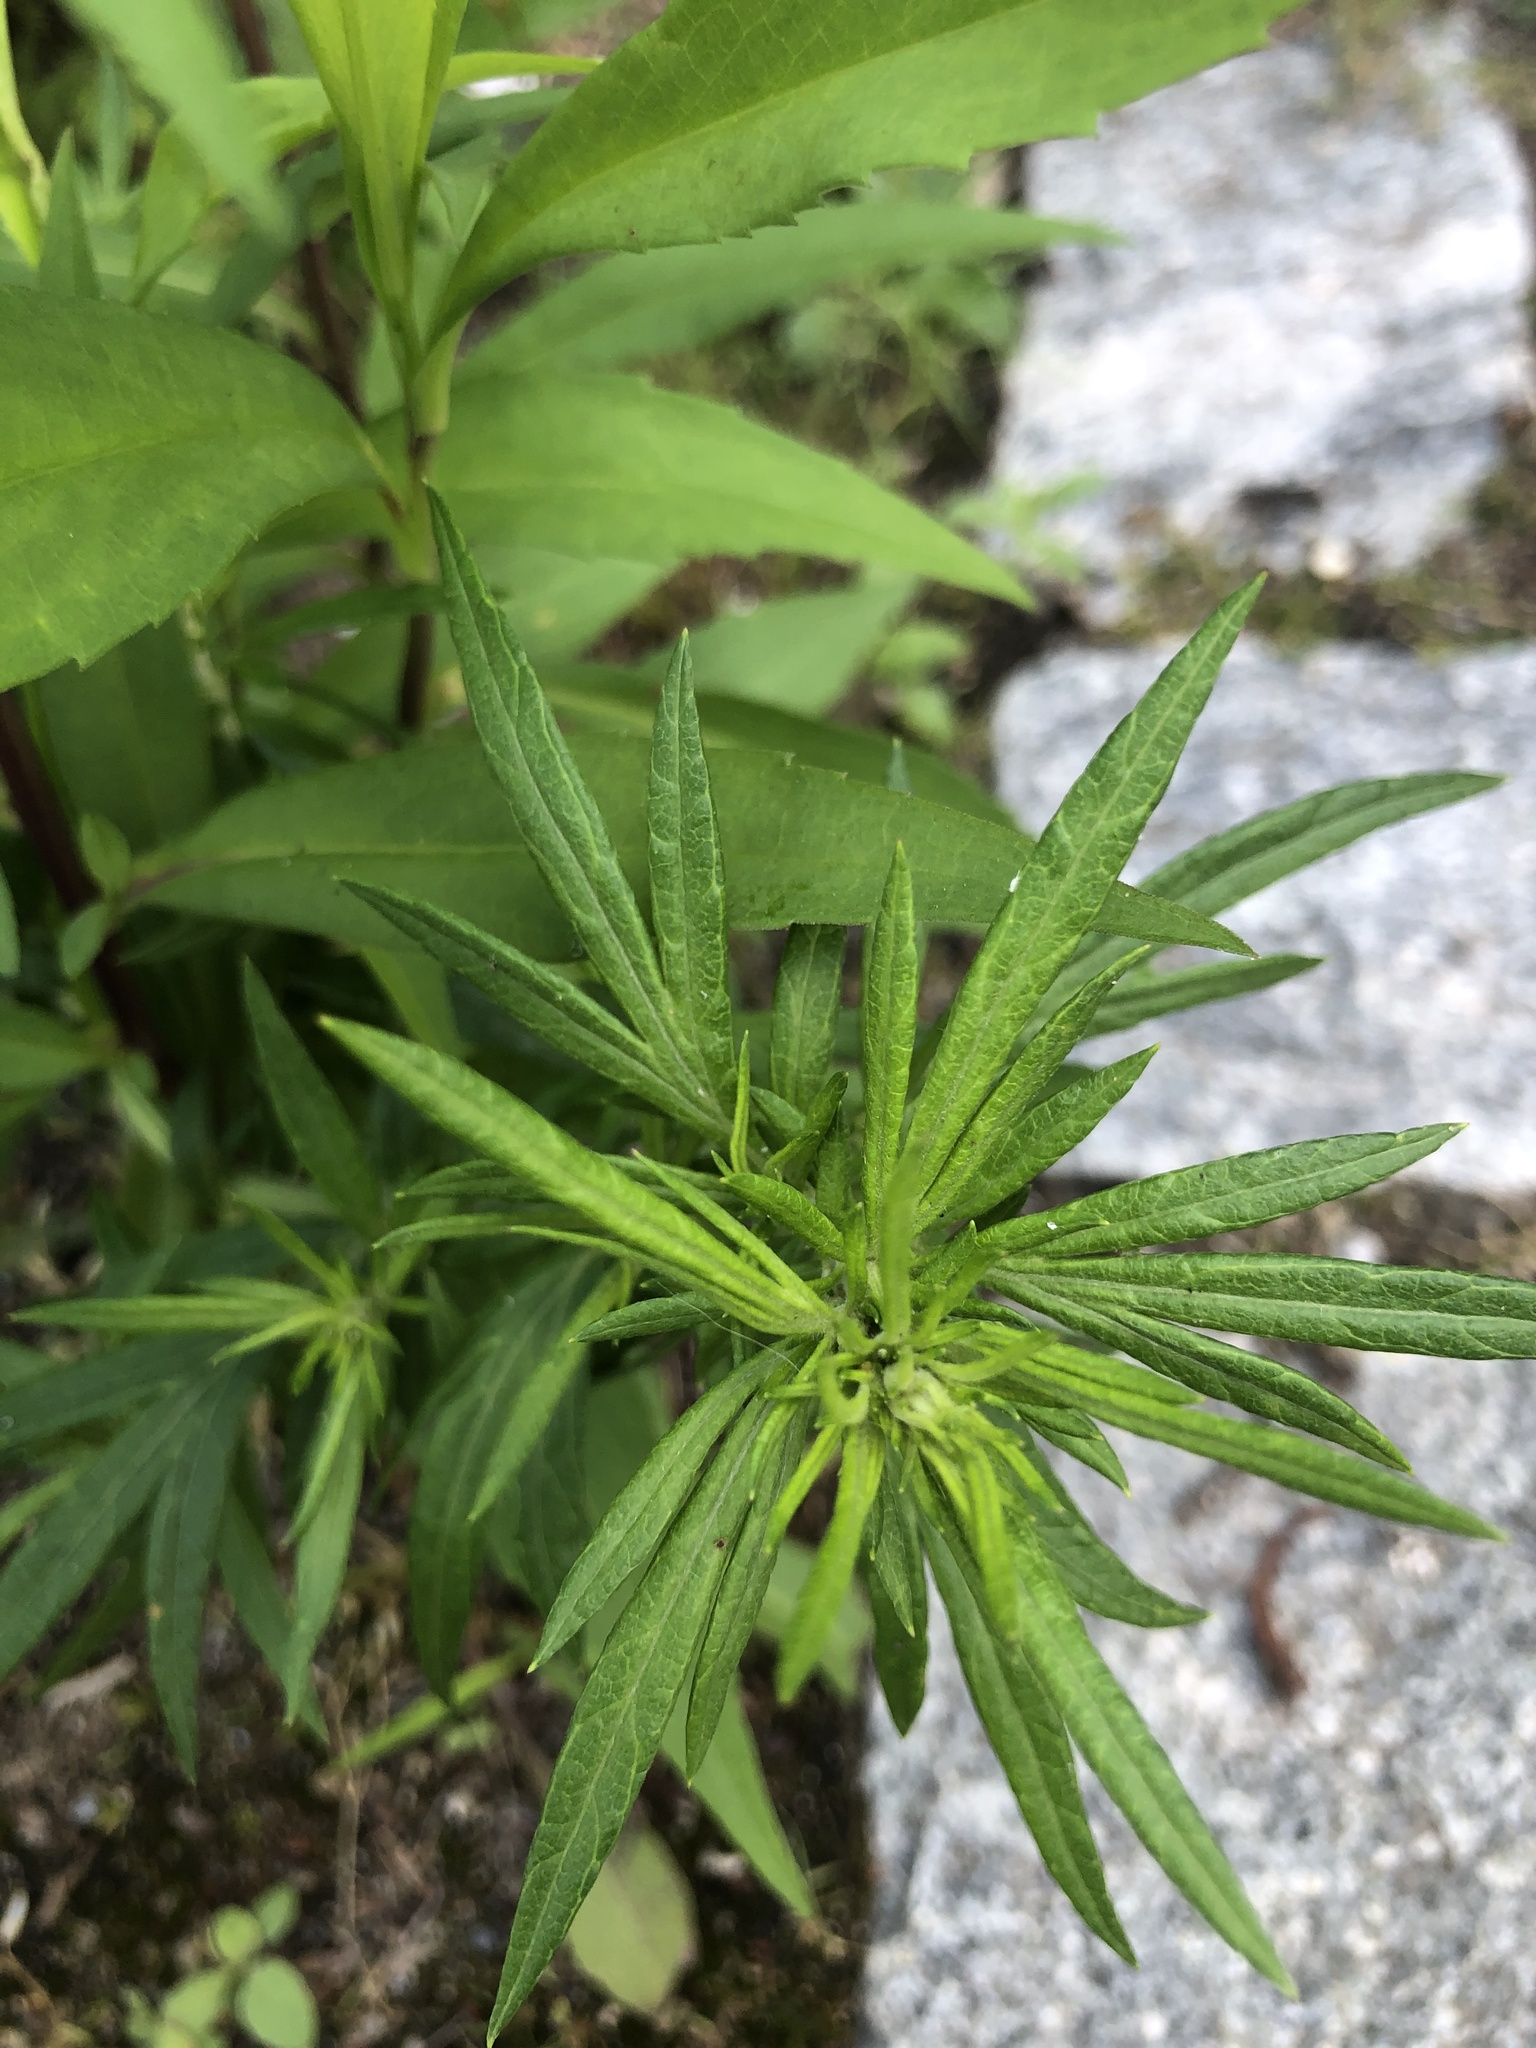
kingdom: Plantae
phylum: Tracheophyta
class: Magnoliopsida
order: Asterales
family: Asteraceae
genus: Artemisia
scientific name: Artemisia vulgaris
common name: Mugwort
